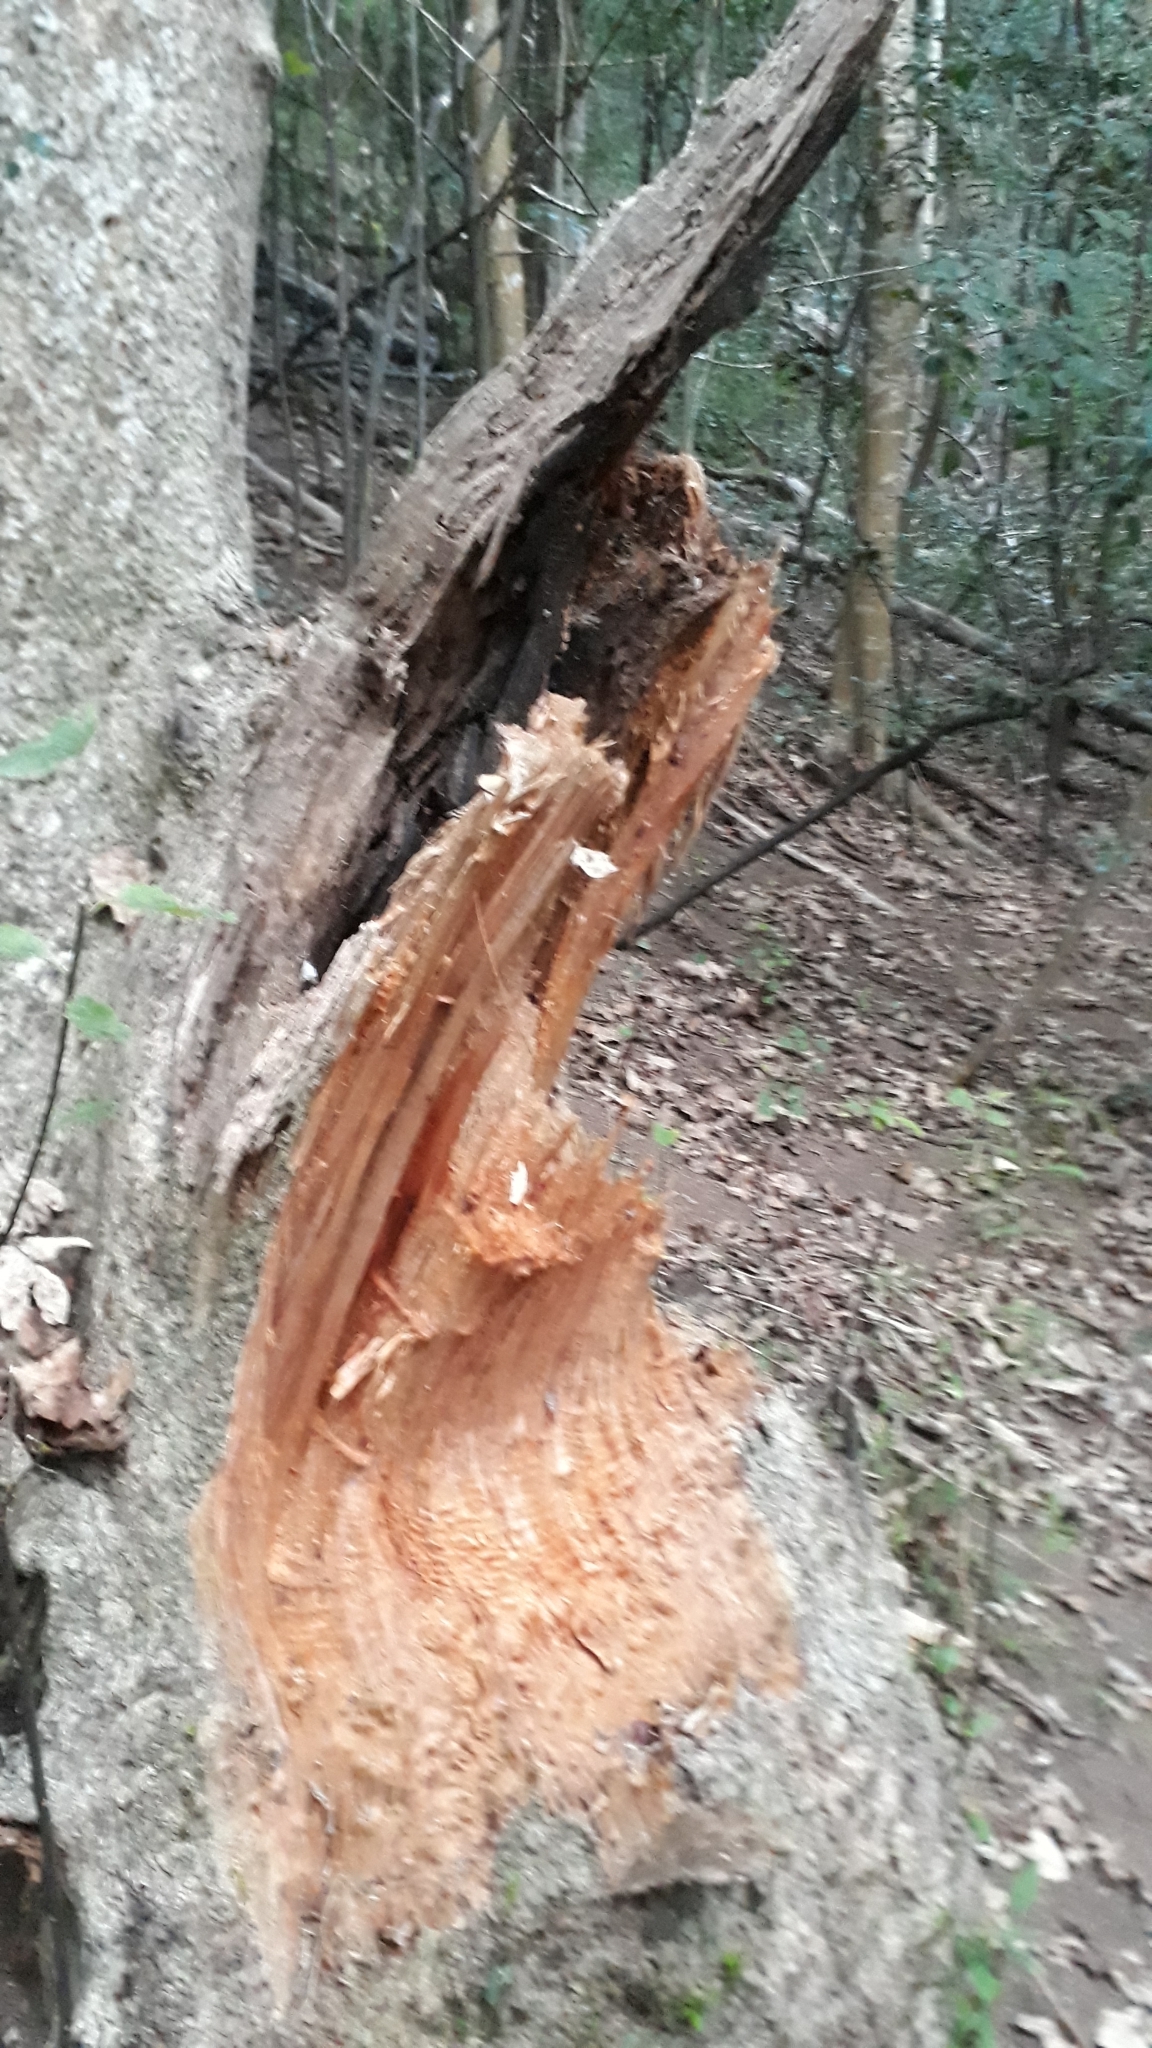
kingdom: Plantae
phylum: Tracheophyta
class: Magnoliopsida
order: Malpighiales
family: Achariaceae
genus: Kiggelaria
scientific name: Kiggelaria africana
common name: Wild peach
